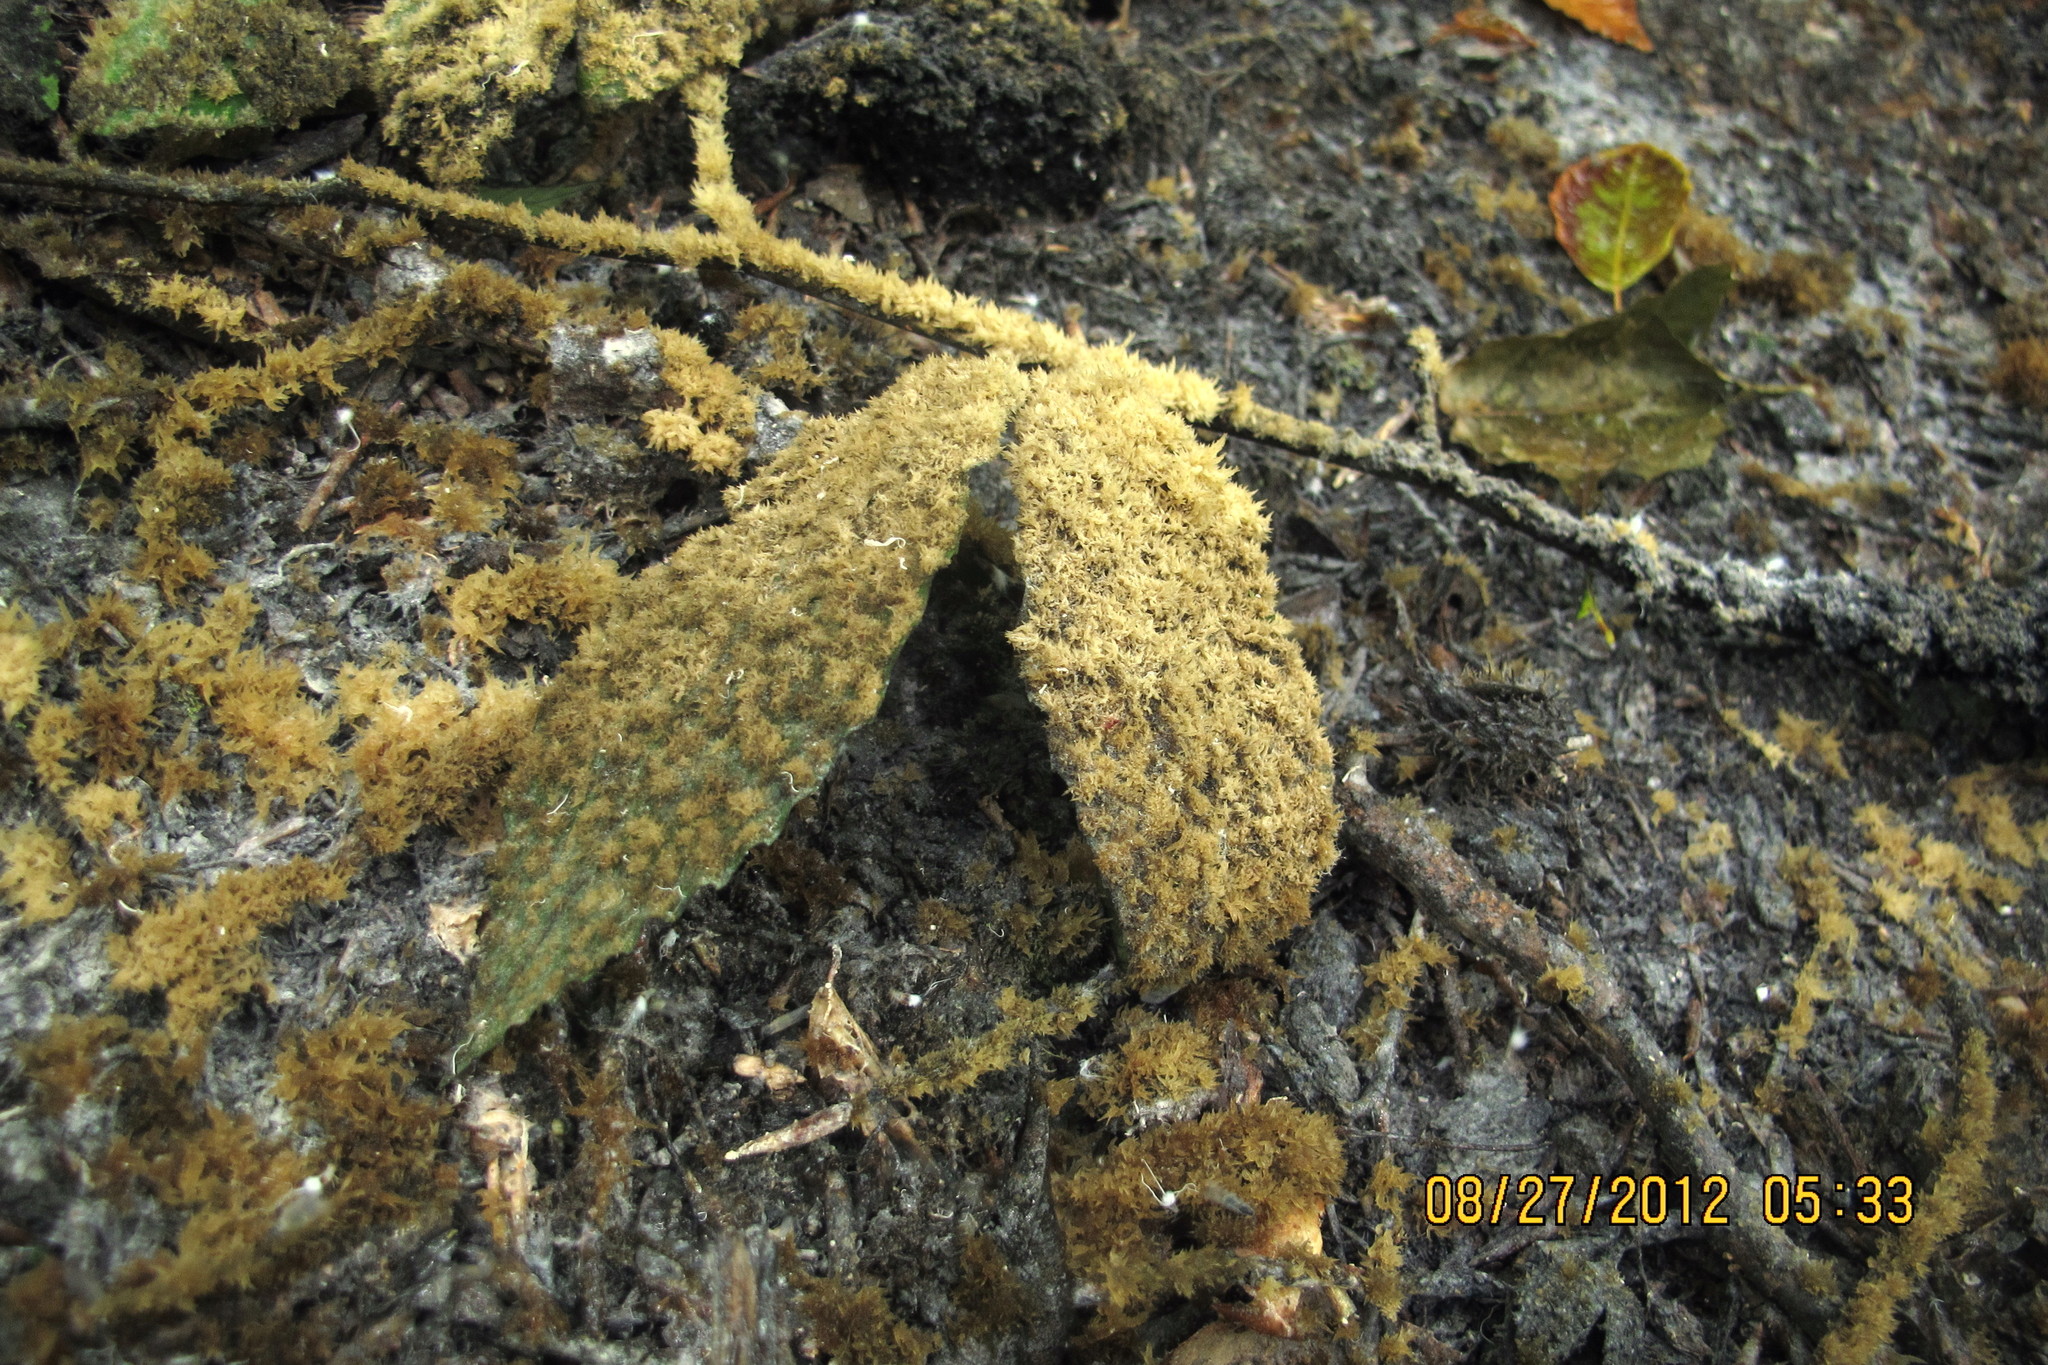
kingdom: Fungi
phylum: Ascomycota
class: Dothideomycetes
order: Capnodiales
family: Capnodiaceae
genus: Scorias
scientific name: Scorias spongiosa
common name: Black sooty mold
